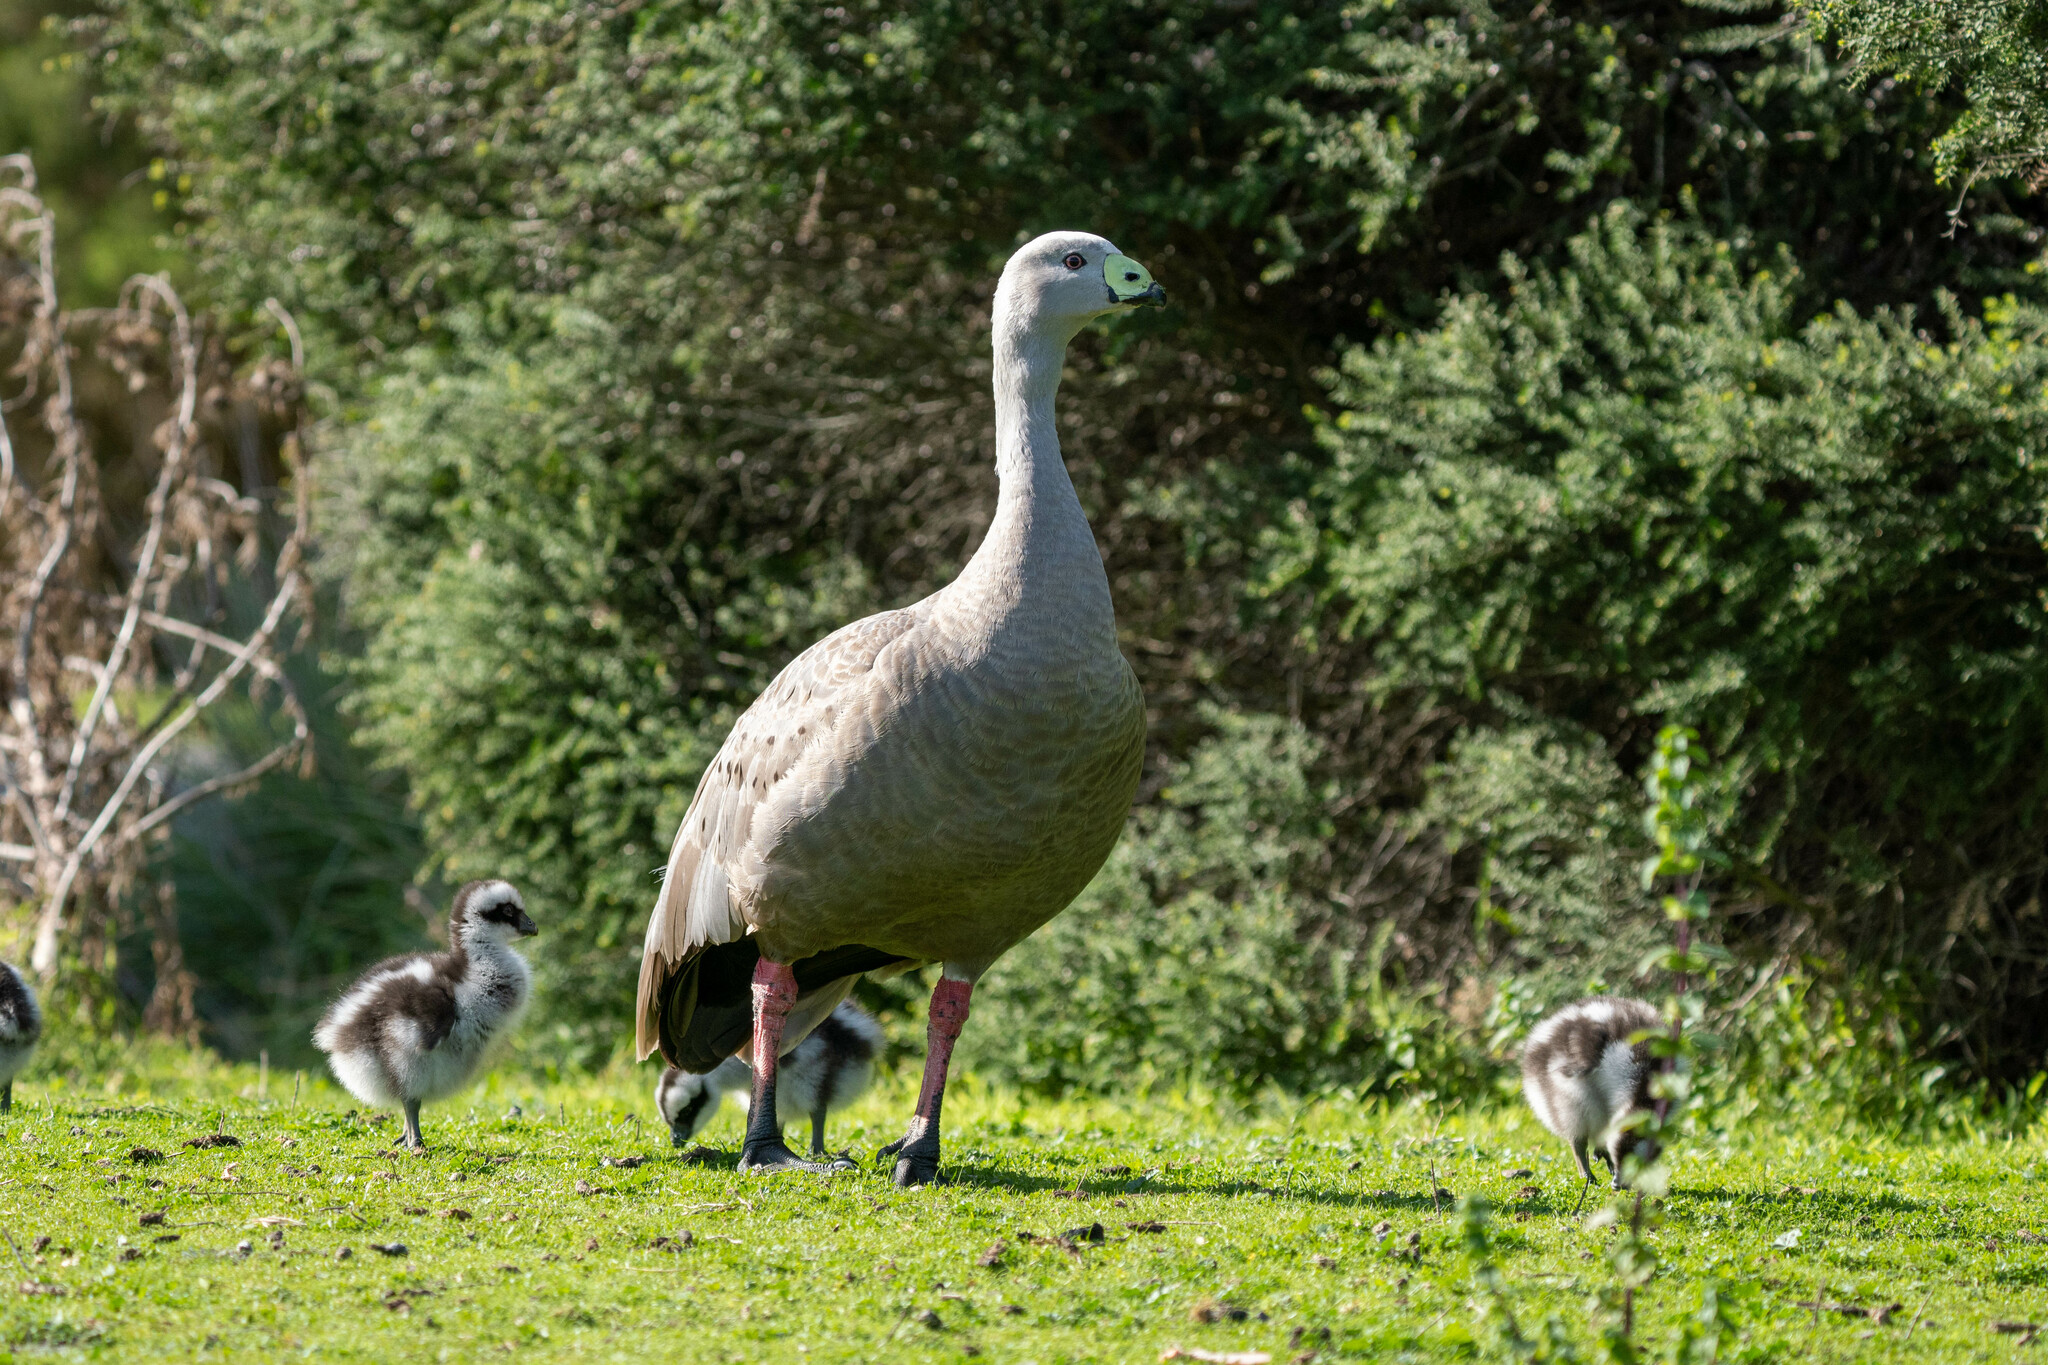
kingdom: Animalia
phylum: Chordata
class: Aves
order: Anseriformes
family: Anatidae
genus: Cereopsis
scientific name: Cereopsis novaehollandiae
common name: Cape barren goose
